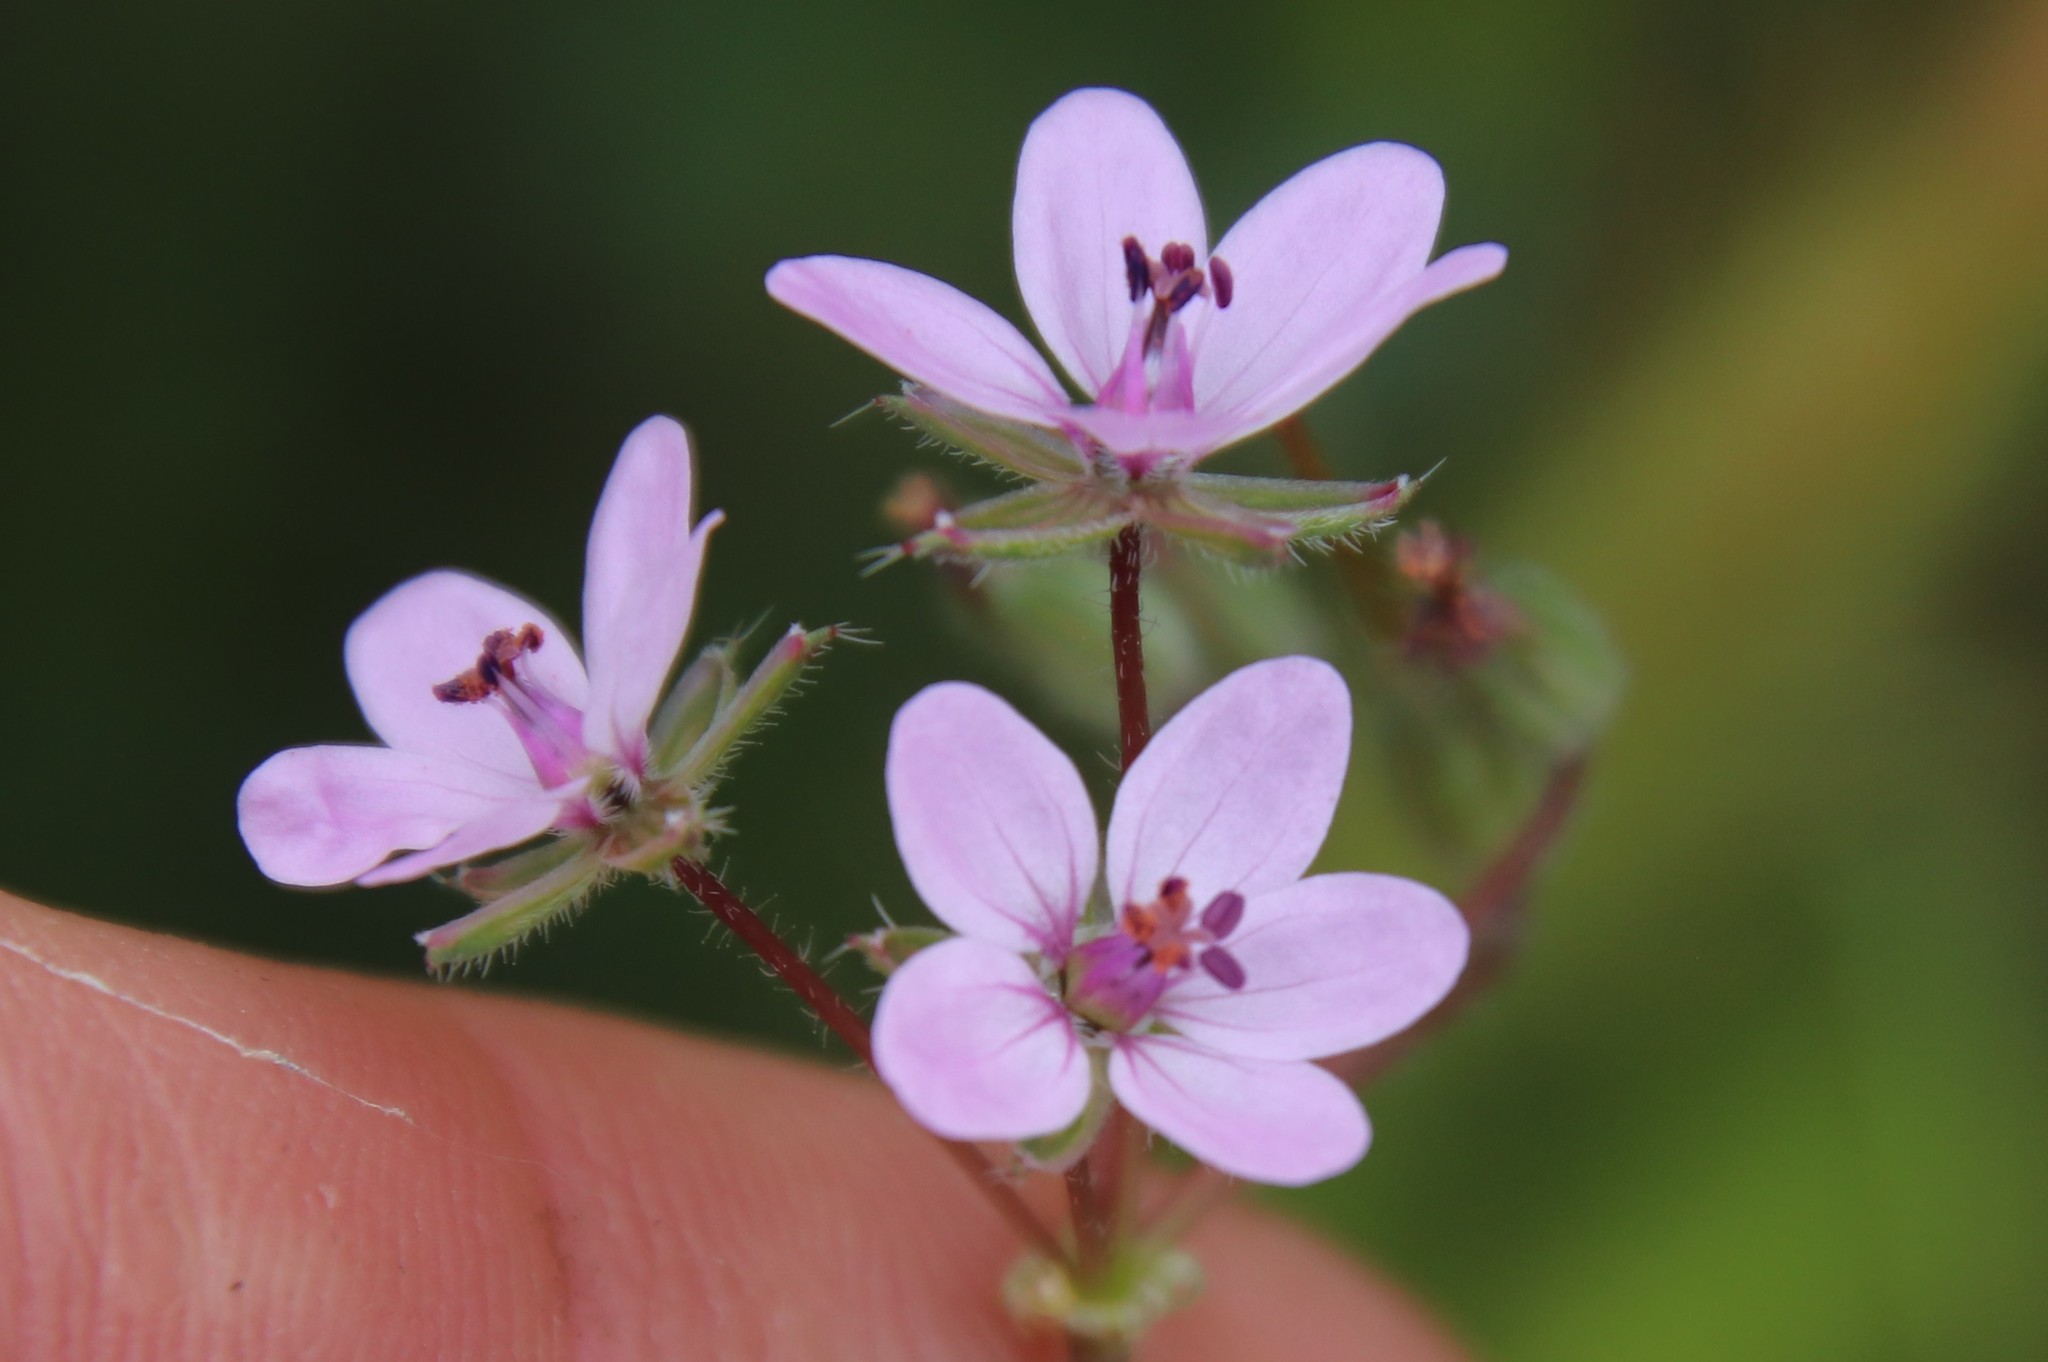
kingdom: Plantae
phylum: Tracheophyta
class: Magnoliopsida
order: Geraniales
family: Geraniaceae
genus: Erodium
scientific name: Erodium cicutarium
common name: Common stork's-bill
